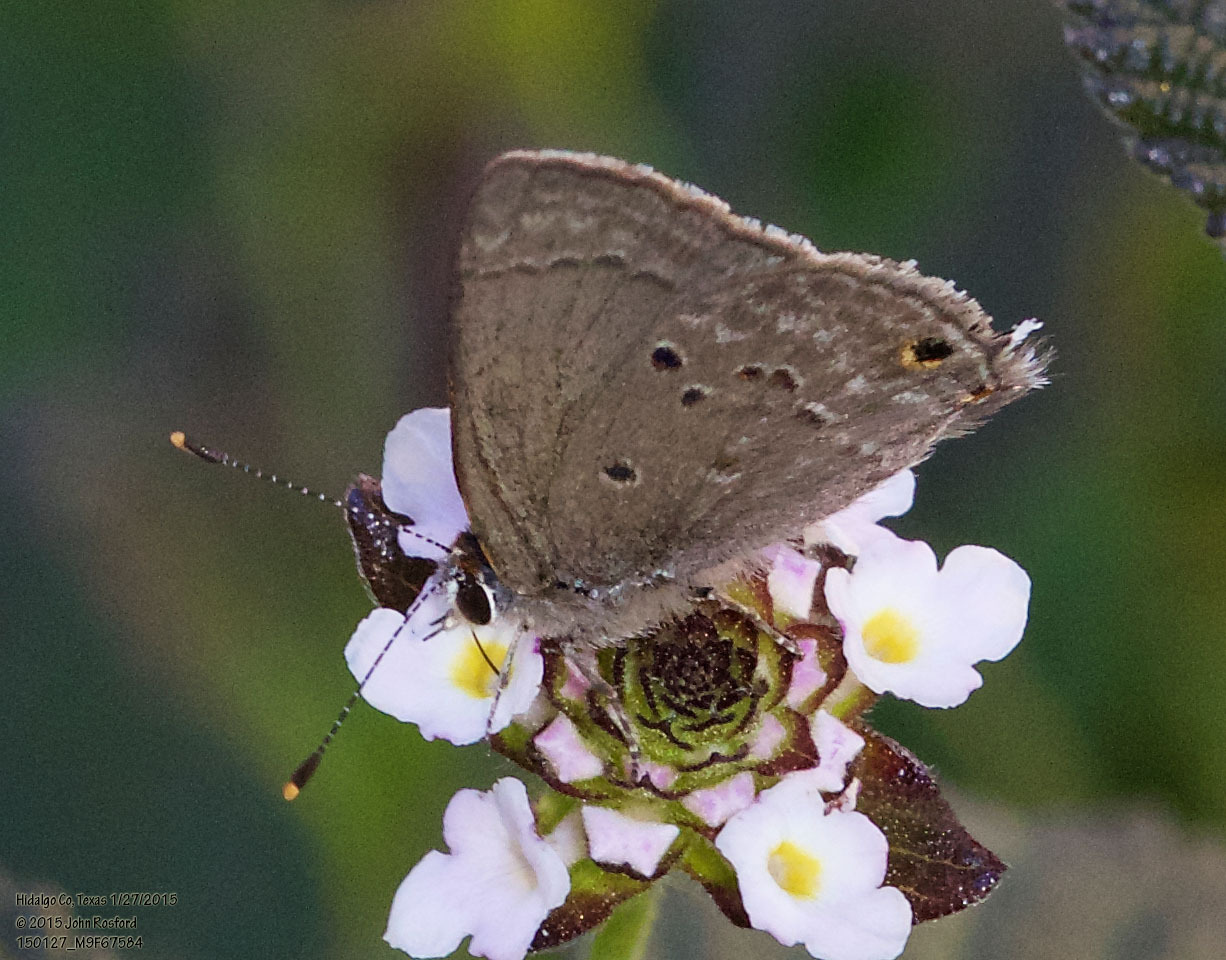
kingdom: Animalia
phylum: Arthropoda
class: Insecta
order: Lepidoptera
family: Lycaenidae
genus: Callicista
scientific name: Callicista columella
